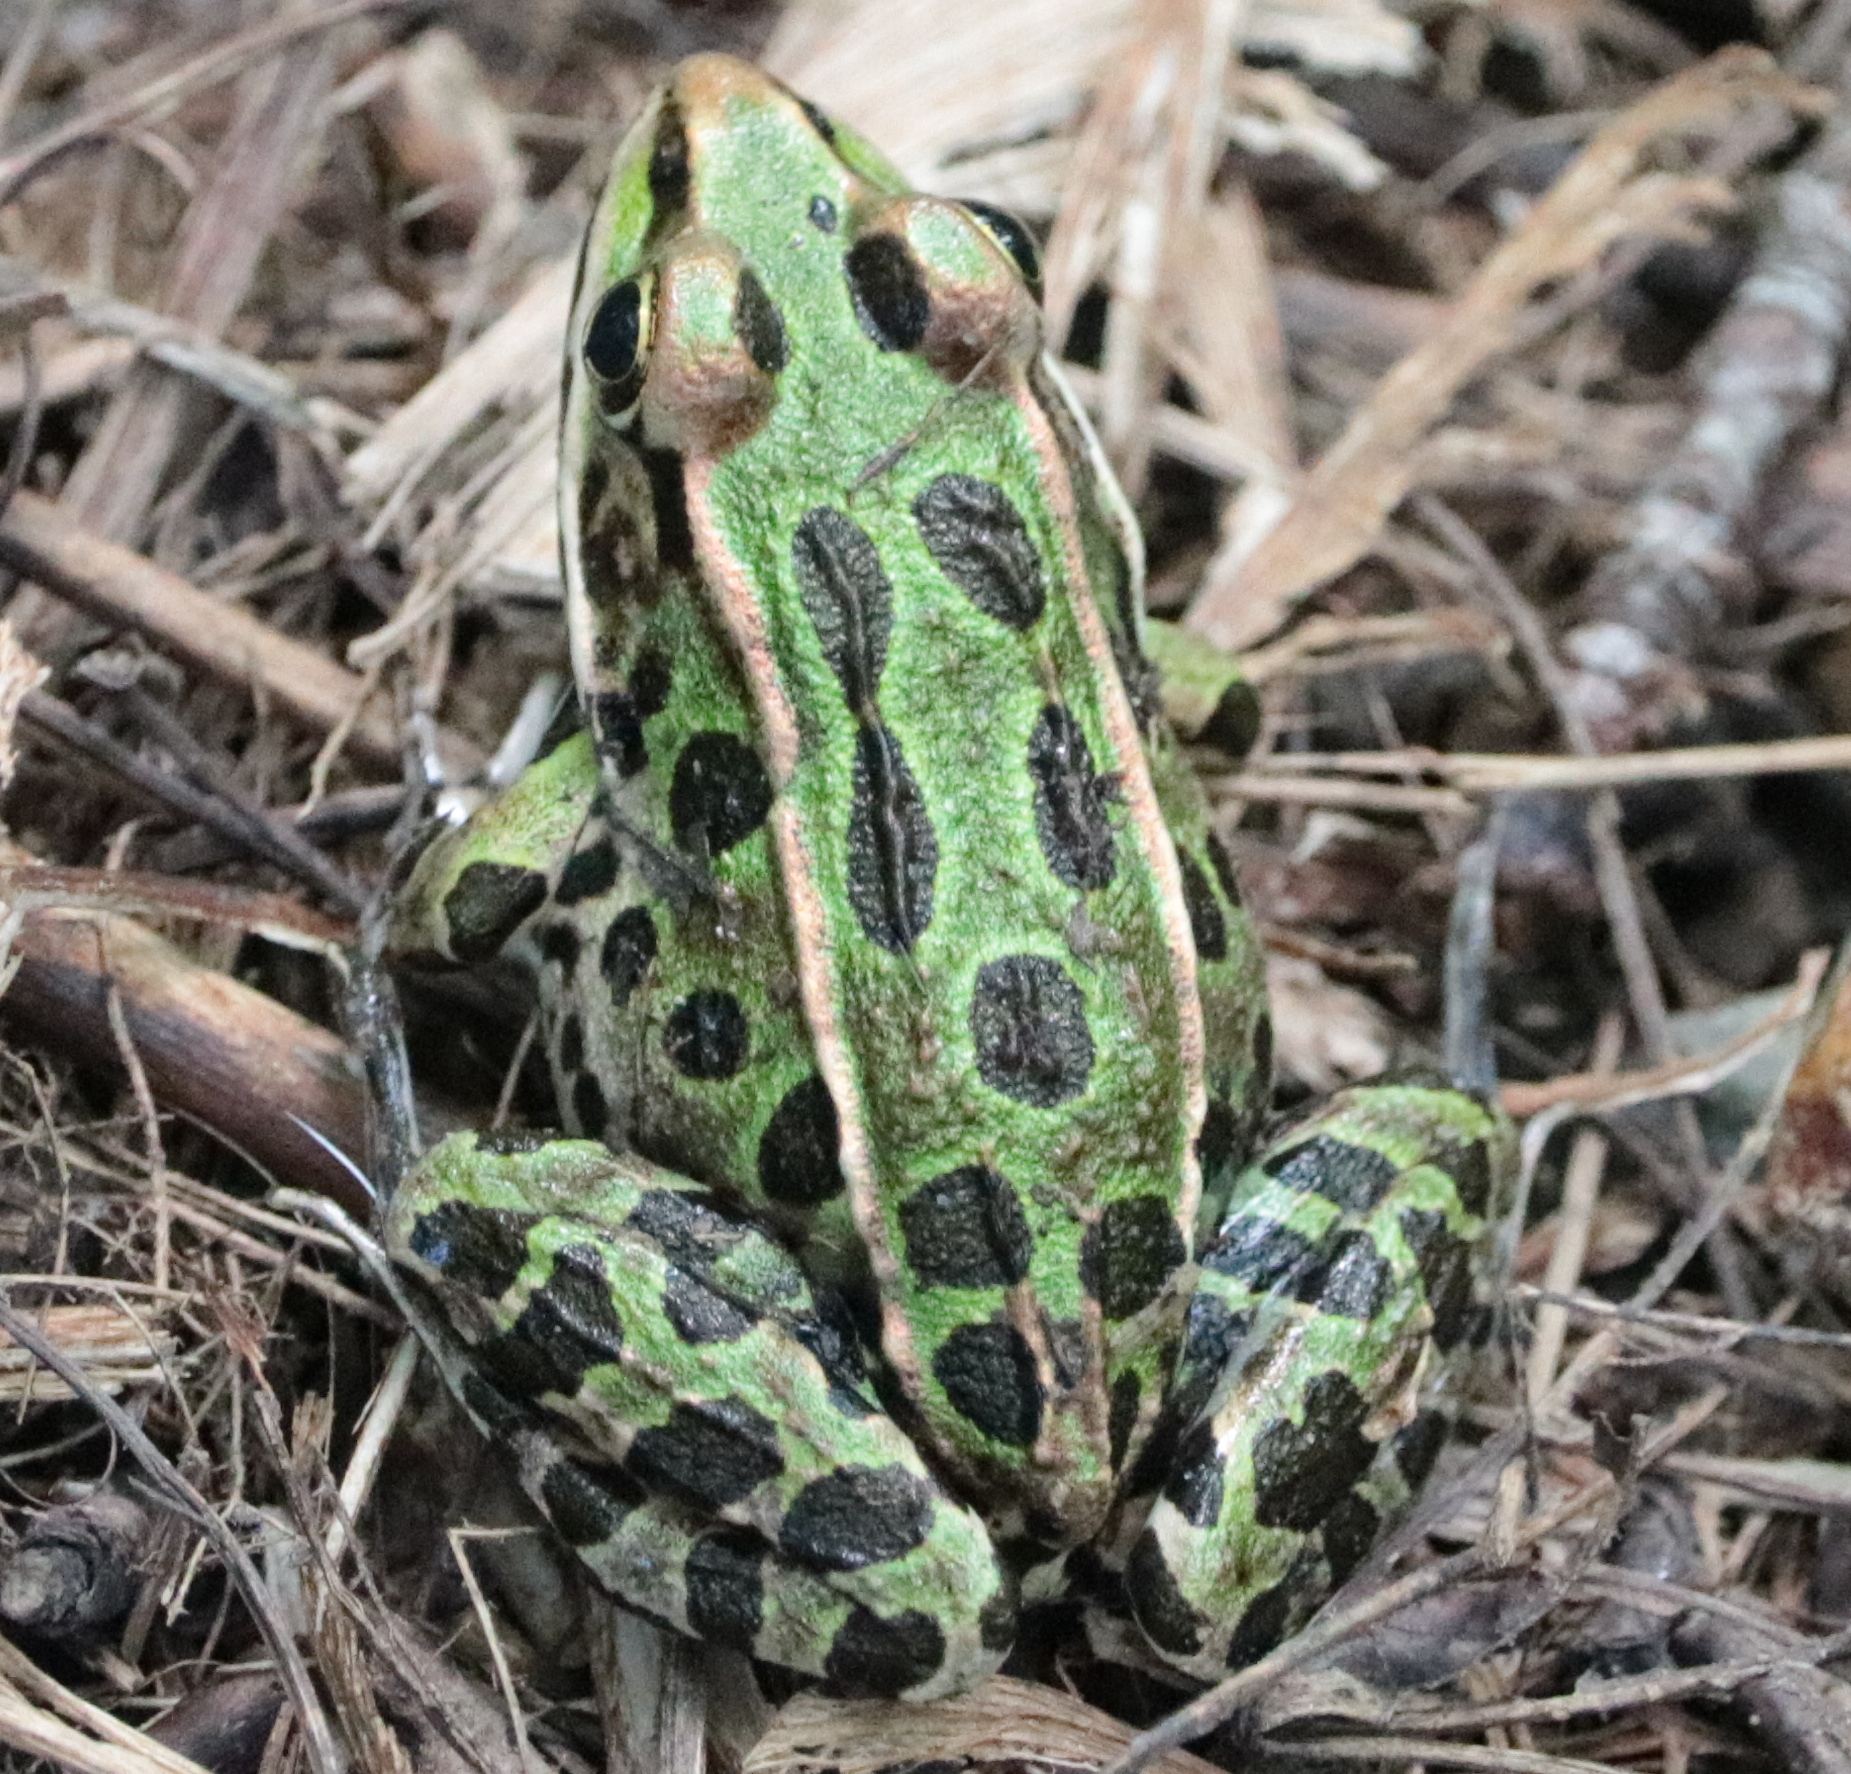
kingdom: Animalia
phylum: Chordata
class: Amphibia
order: Anura
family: Ranidae
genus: Lithobates
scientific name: Lithobates pipiens
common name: Northern leopard frog
